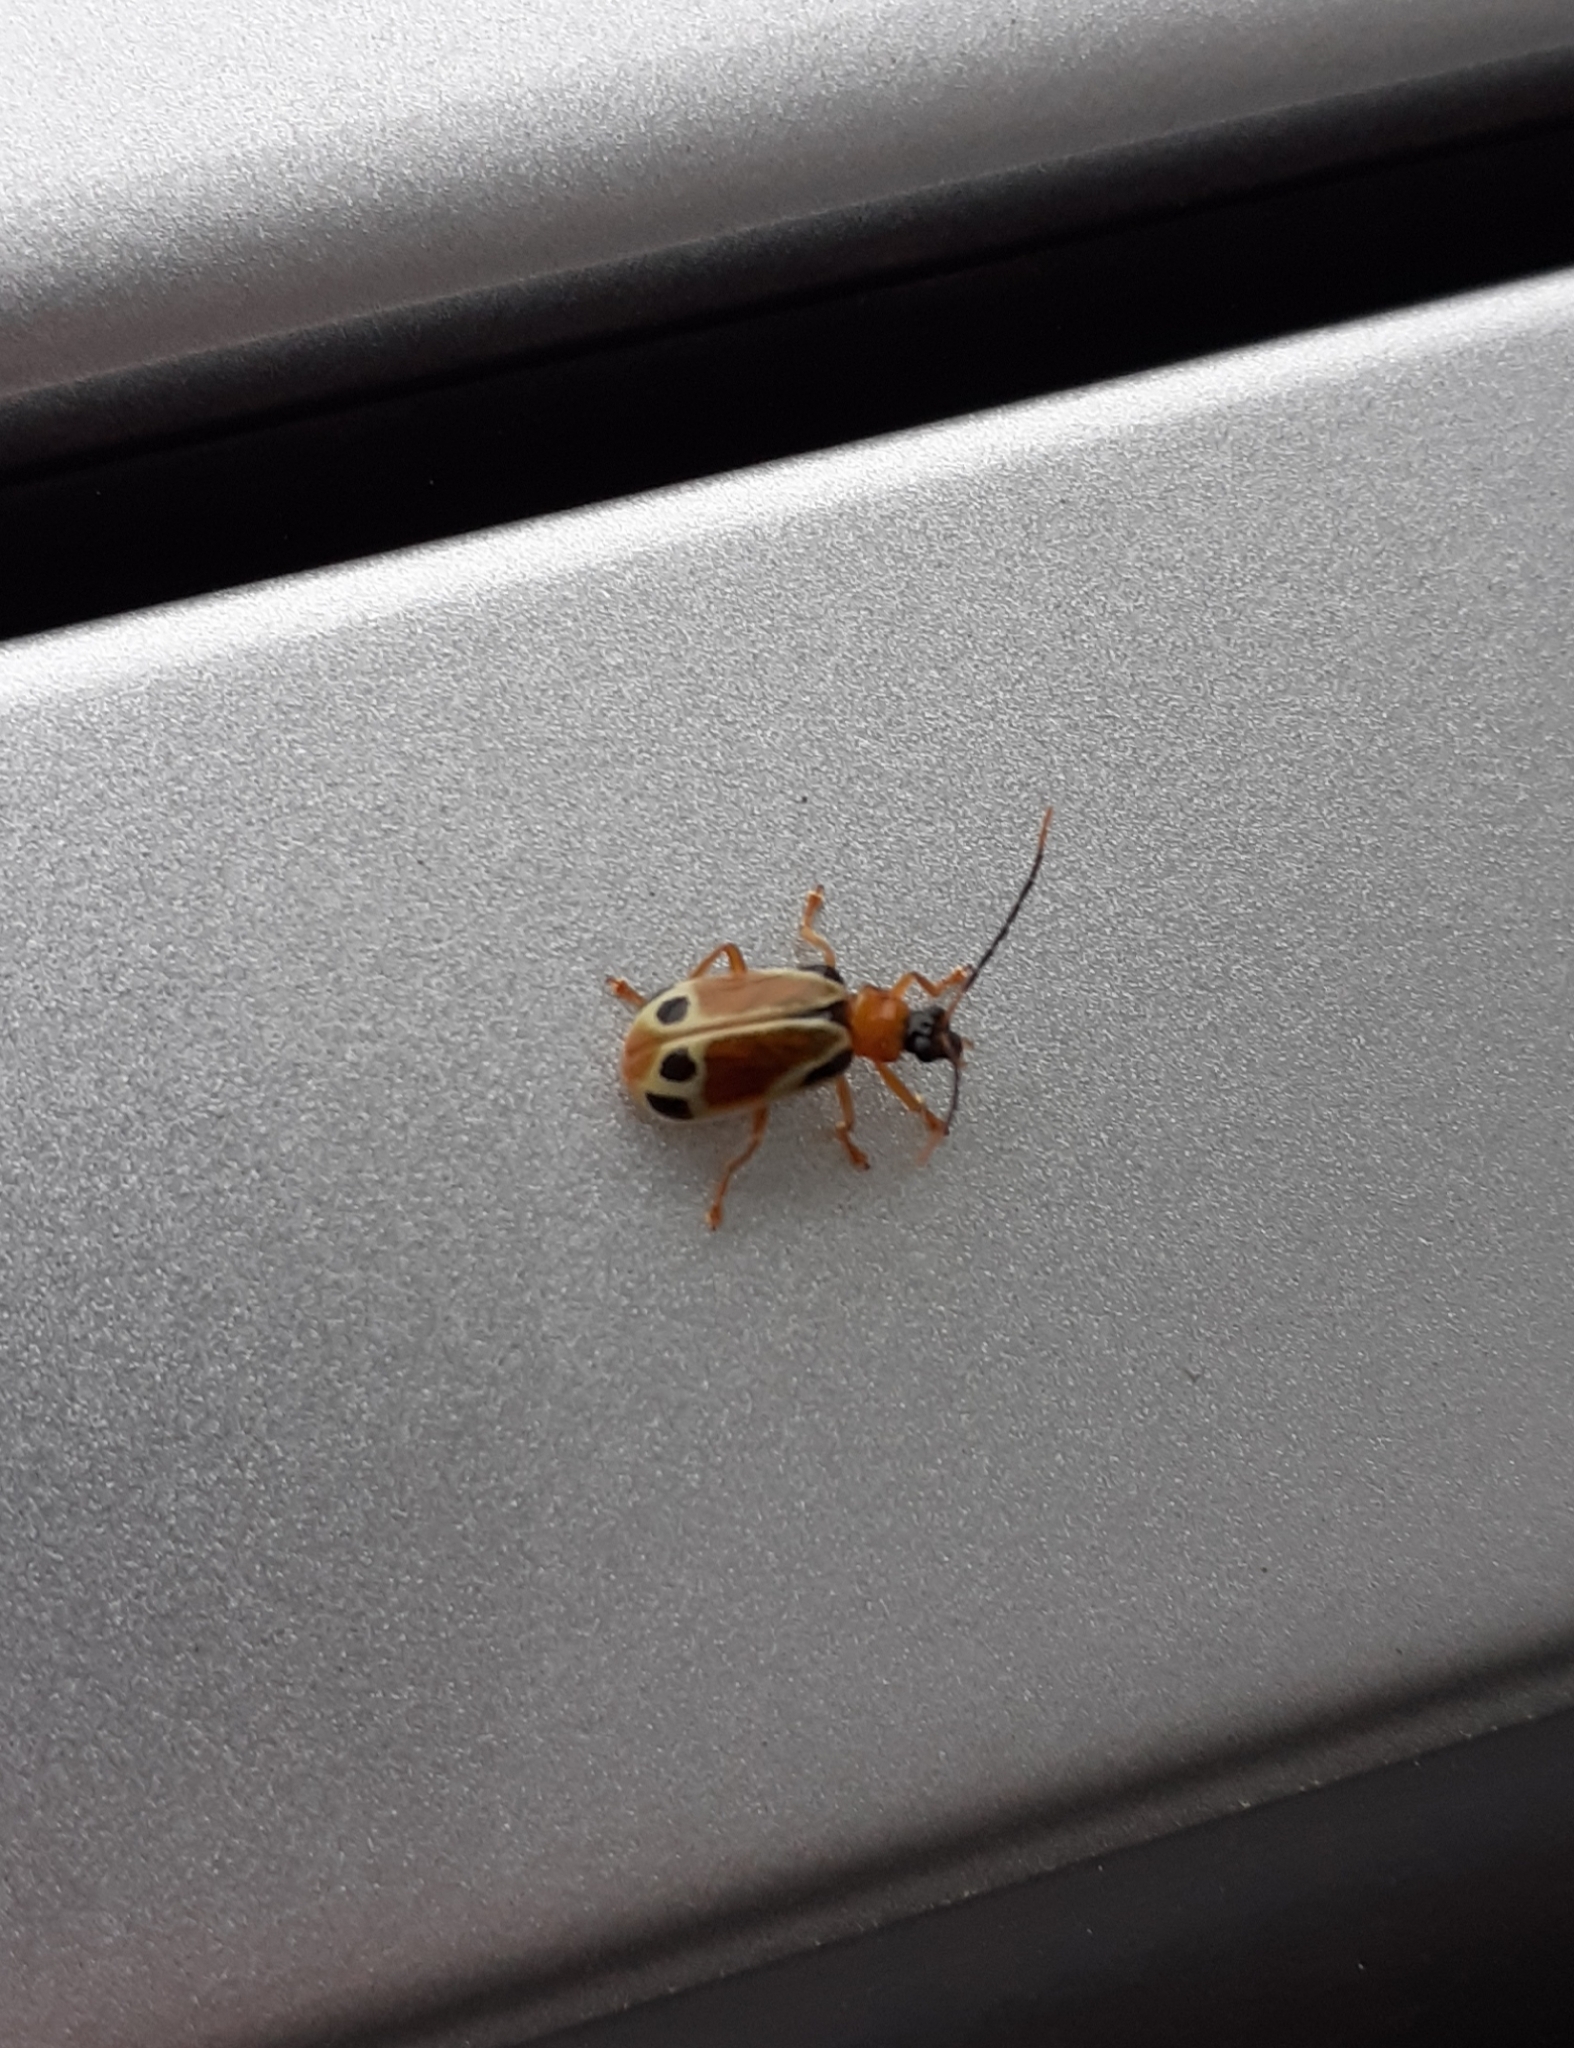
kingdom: Animalia
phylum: Arthropoda
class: Insecta
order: Coleoptera
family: Chrysomelidae
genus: Diabrotica
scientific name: Diabrotica
